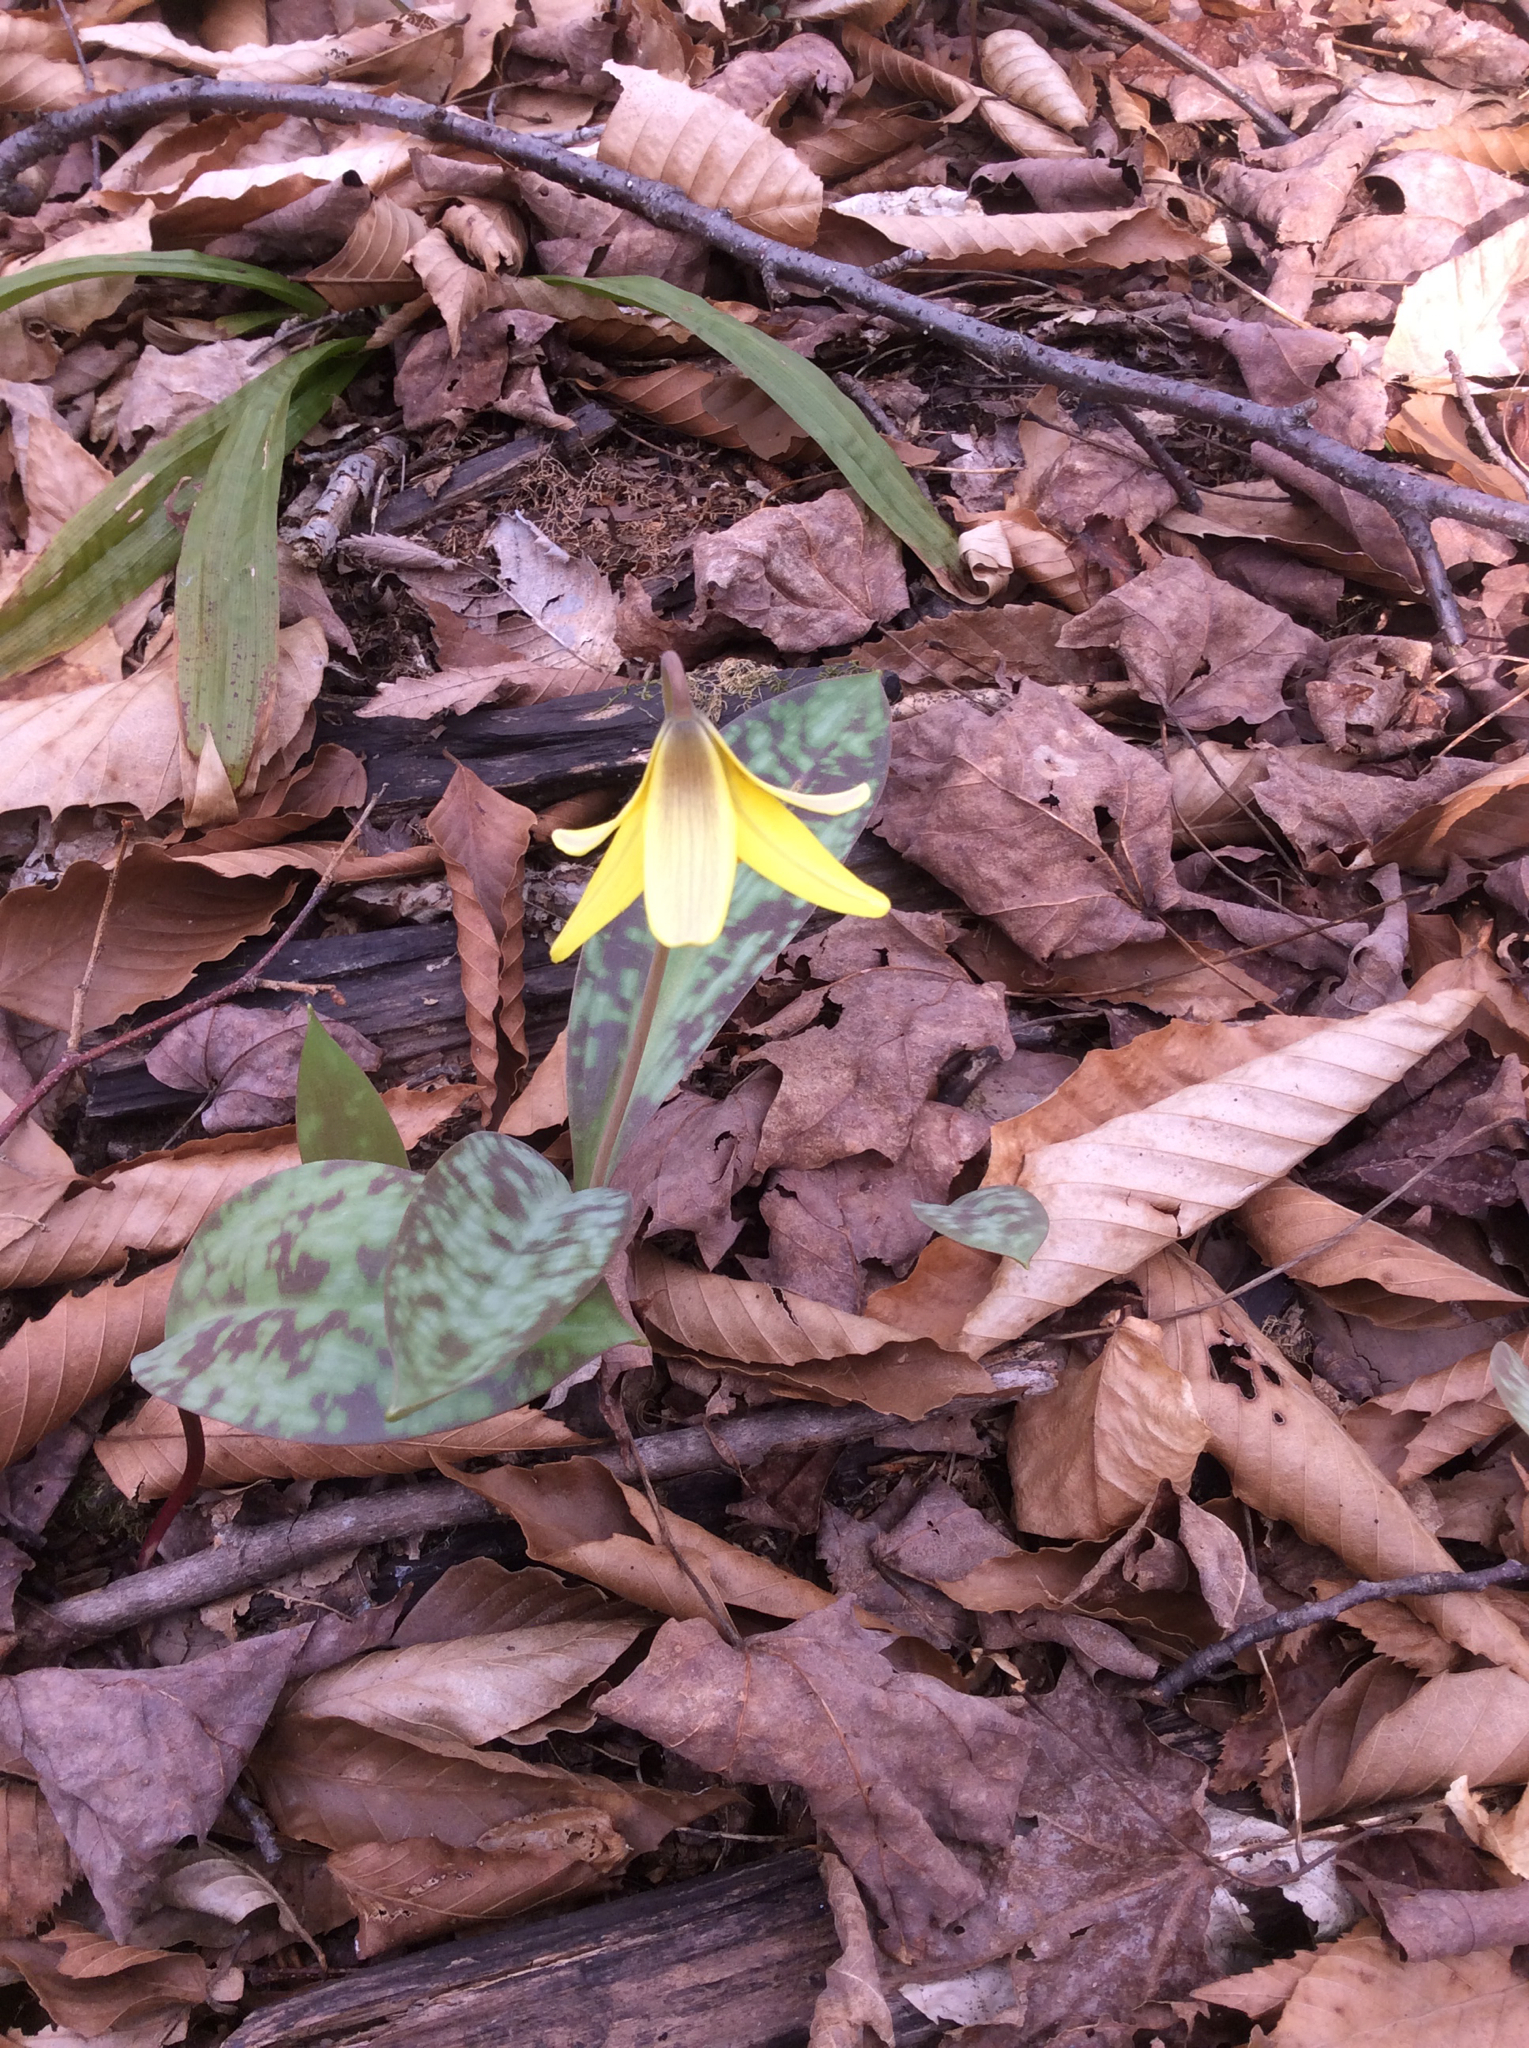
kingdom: Plantae
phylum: Tracheophyta
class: Liliopsida
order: Liliales
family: Liliaceae
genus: Erythronium
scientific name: Erythronium americanum
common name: Yellow adder's-tongue
